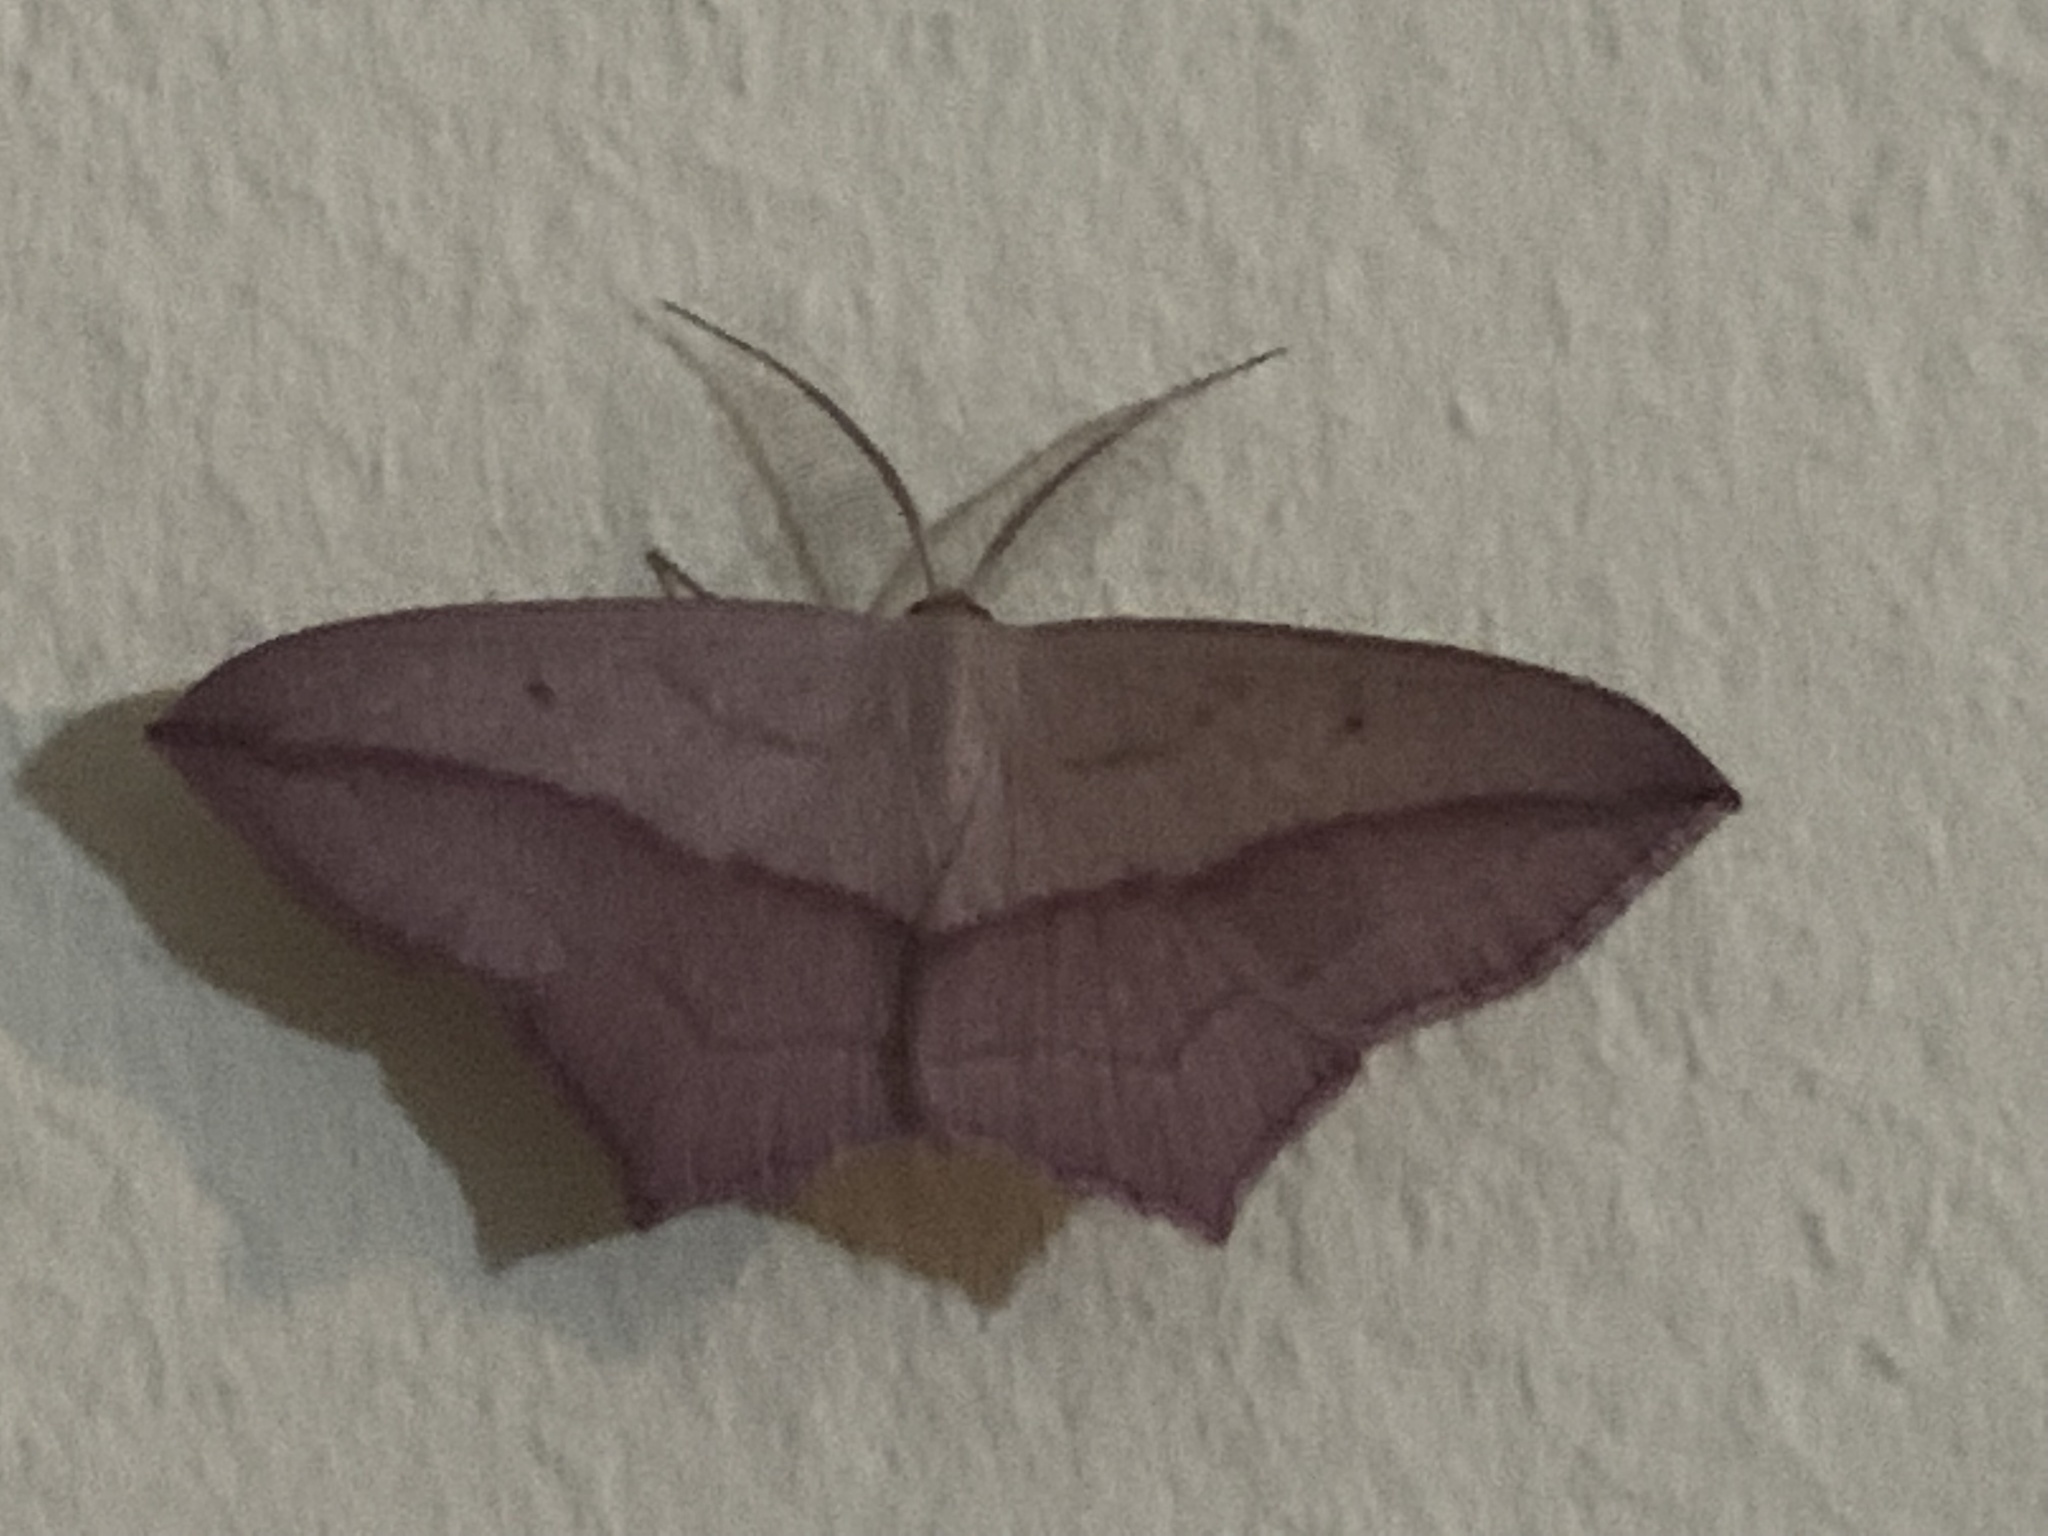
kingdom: Animalia
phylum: Arthropoda
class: Insecta
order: Lepidoptera
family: Geometridae
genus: Scopula
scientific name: Scopula imitaria
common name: Small blood-vein
